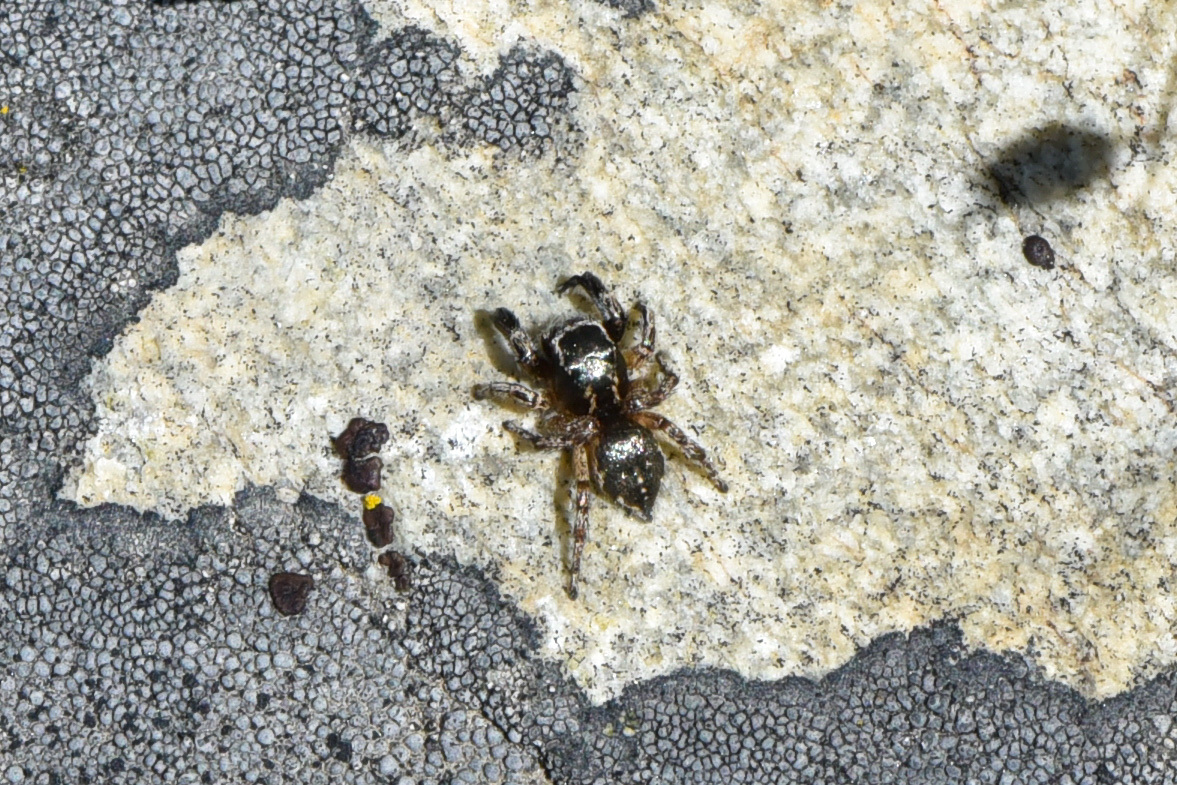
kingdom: Animalia
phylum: Arthropoda
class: Arachnida
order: Araneae
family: Salticidae
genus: Habronattus
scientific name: Habronattus hirsutus
